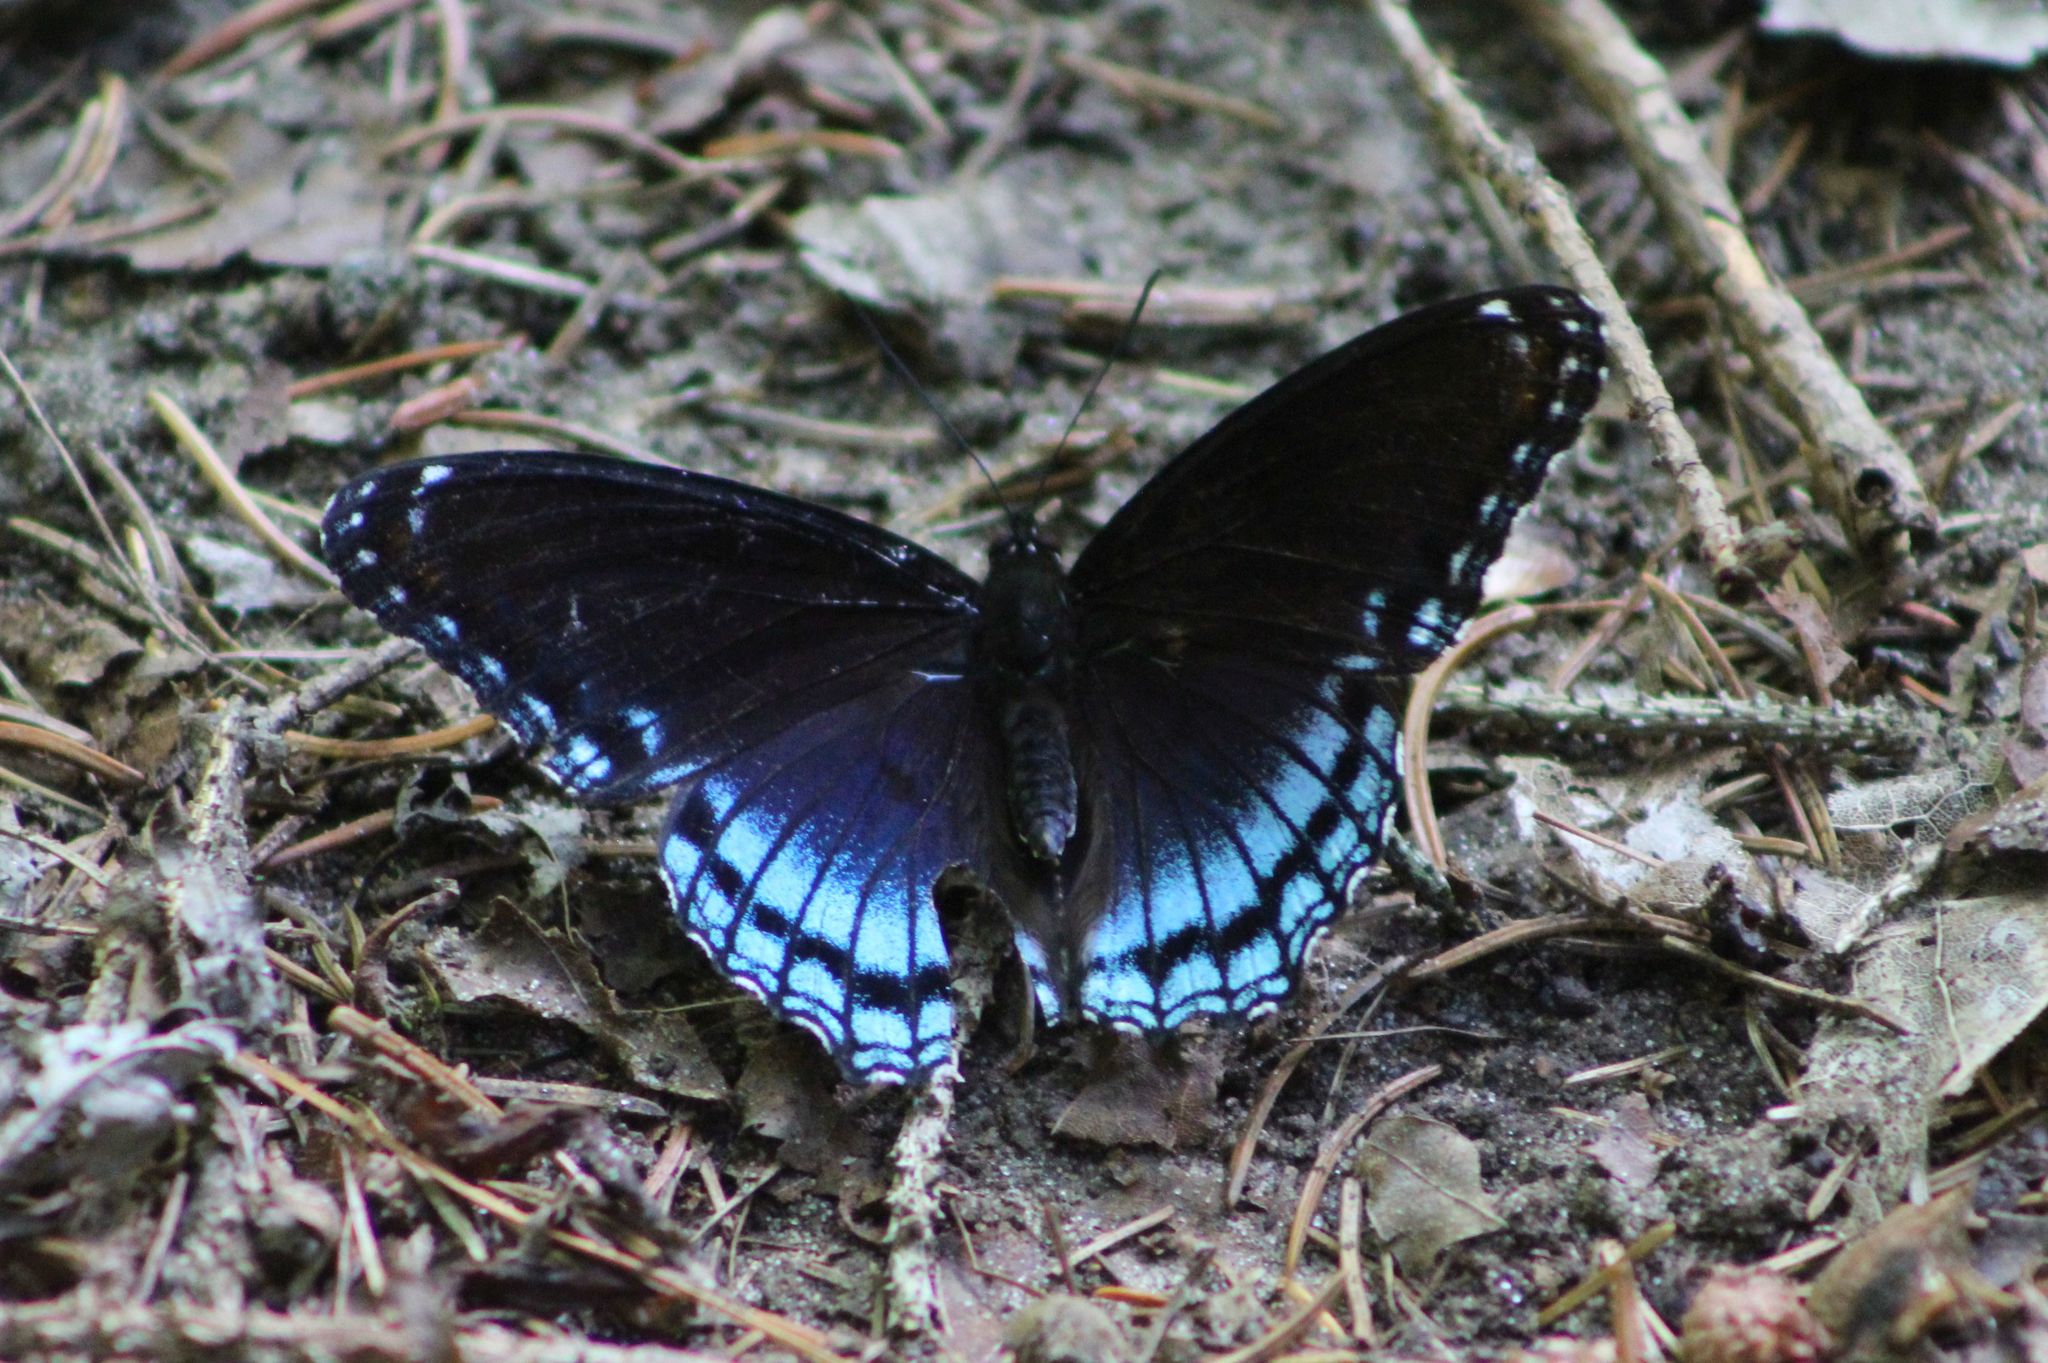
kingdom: Animalia
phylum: Arthropoda
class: Insecta
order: Lepidoptera
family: Nymphalidae
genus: Limenitis
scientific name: Limenitis astyanax
